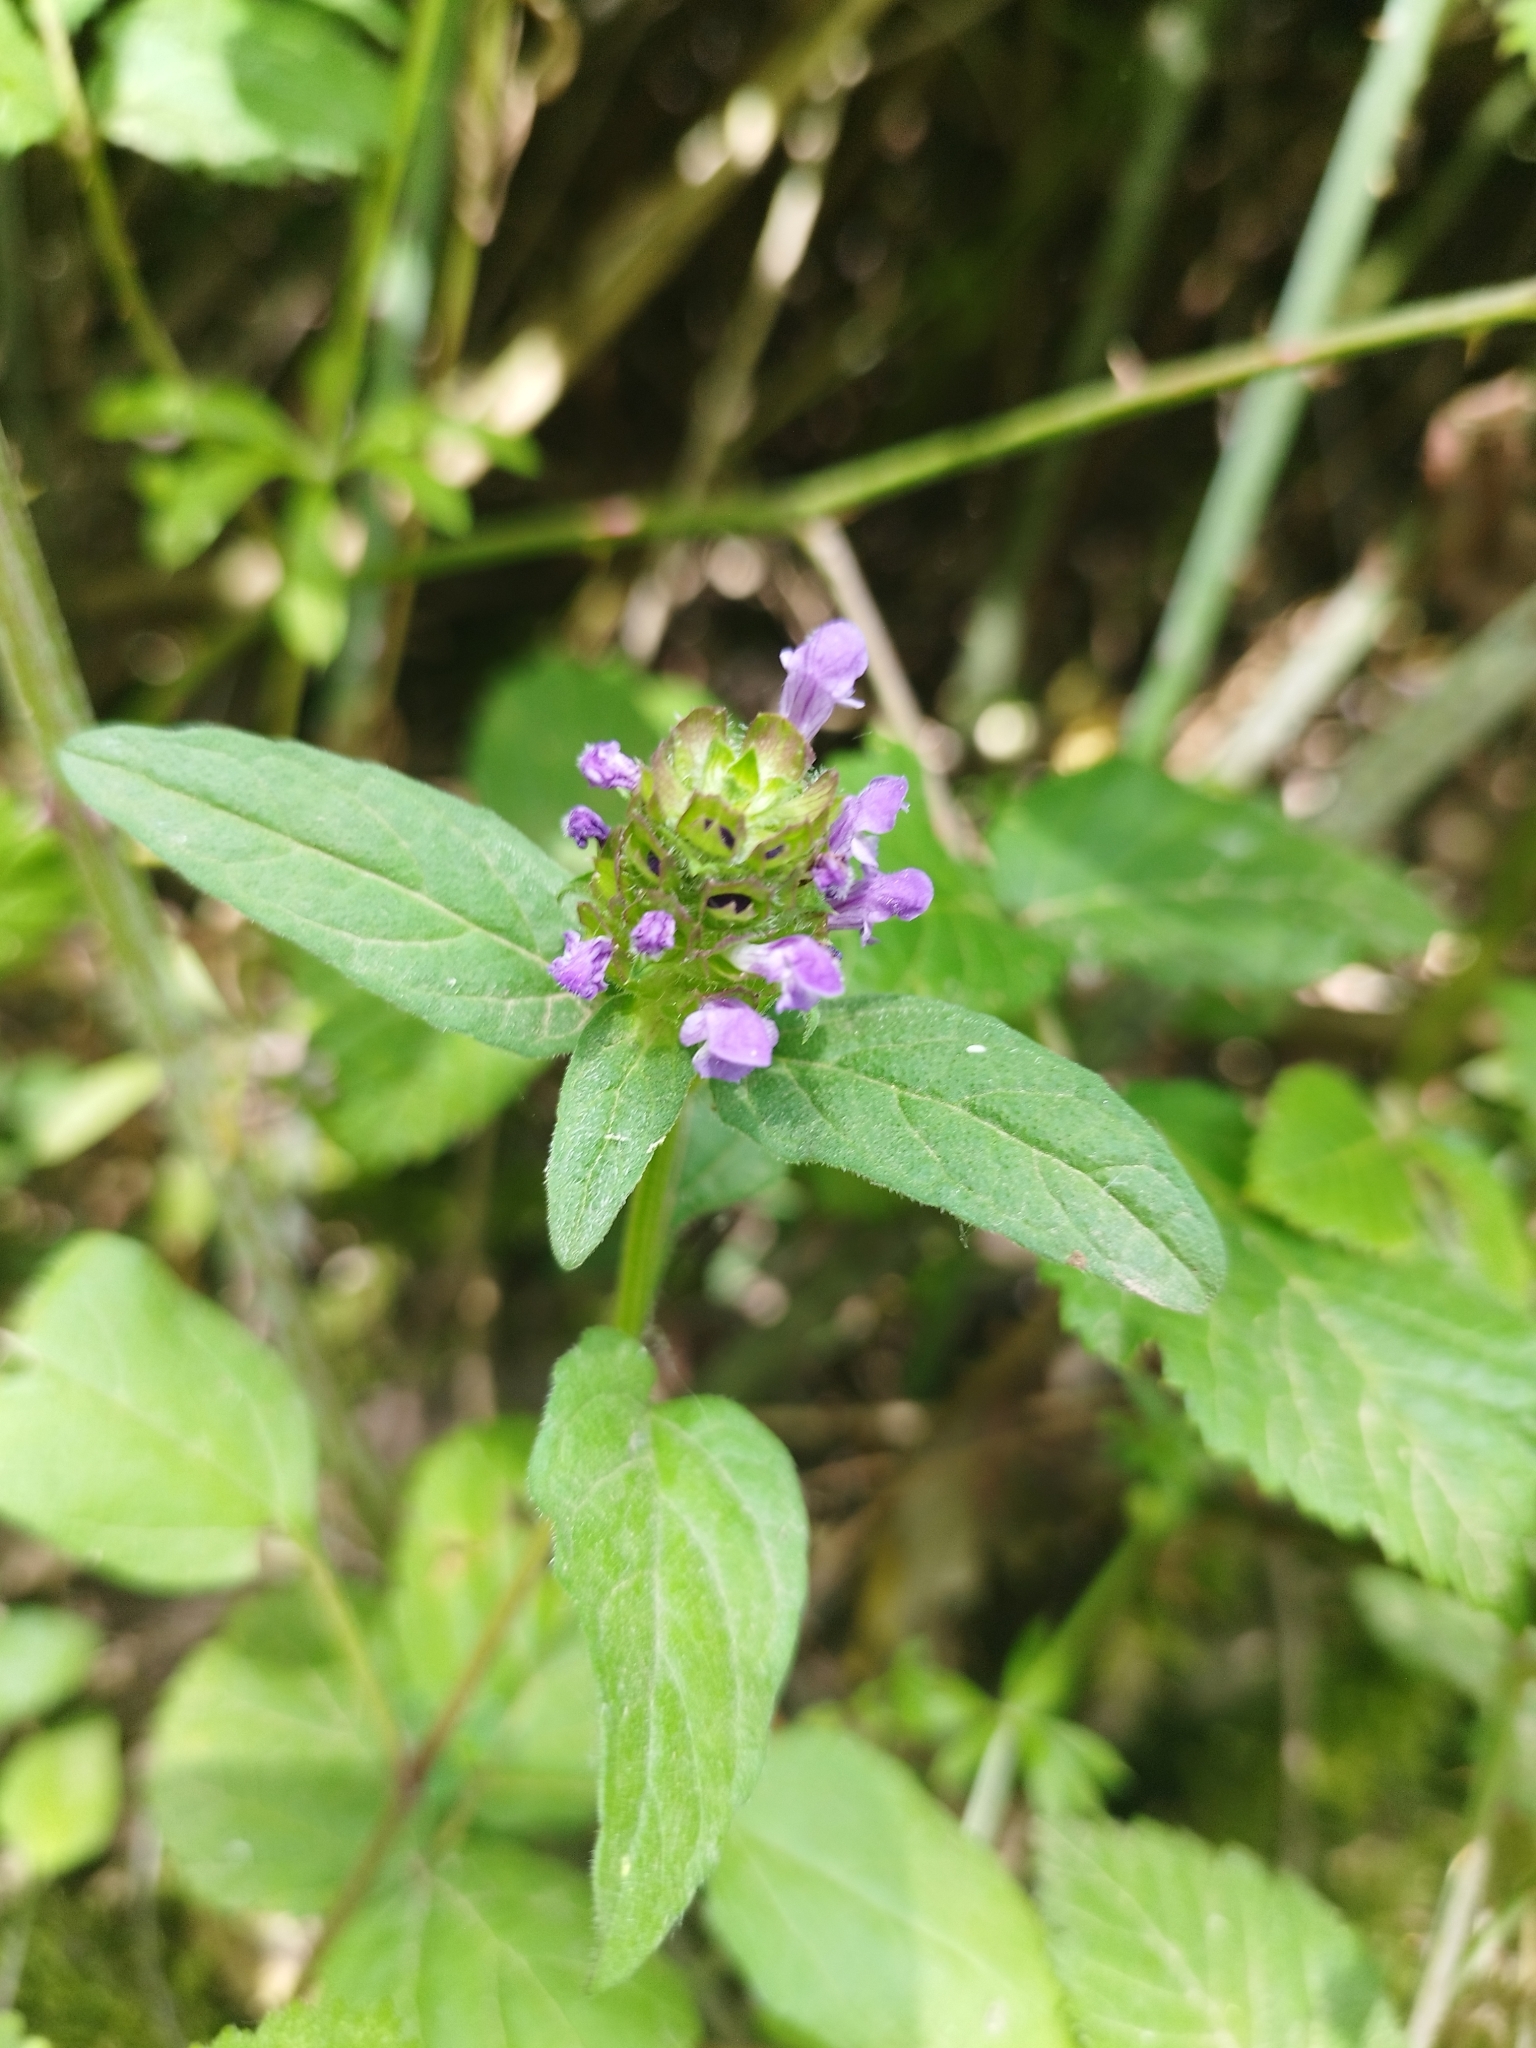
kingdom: Plantae
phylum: Tracheophyta
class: Magnoliopsida
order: Lamiales
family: Lamiaceae
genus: Prunella
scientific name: Prunella vulgaris
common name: Heal-all
